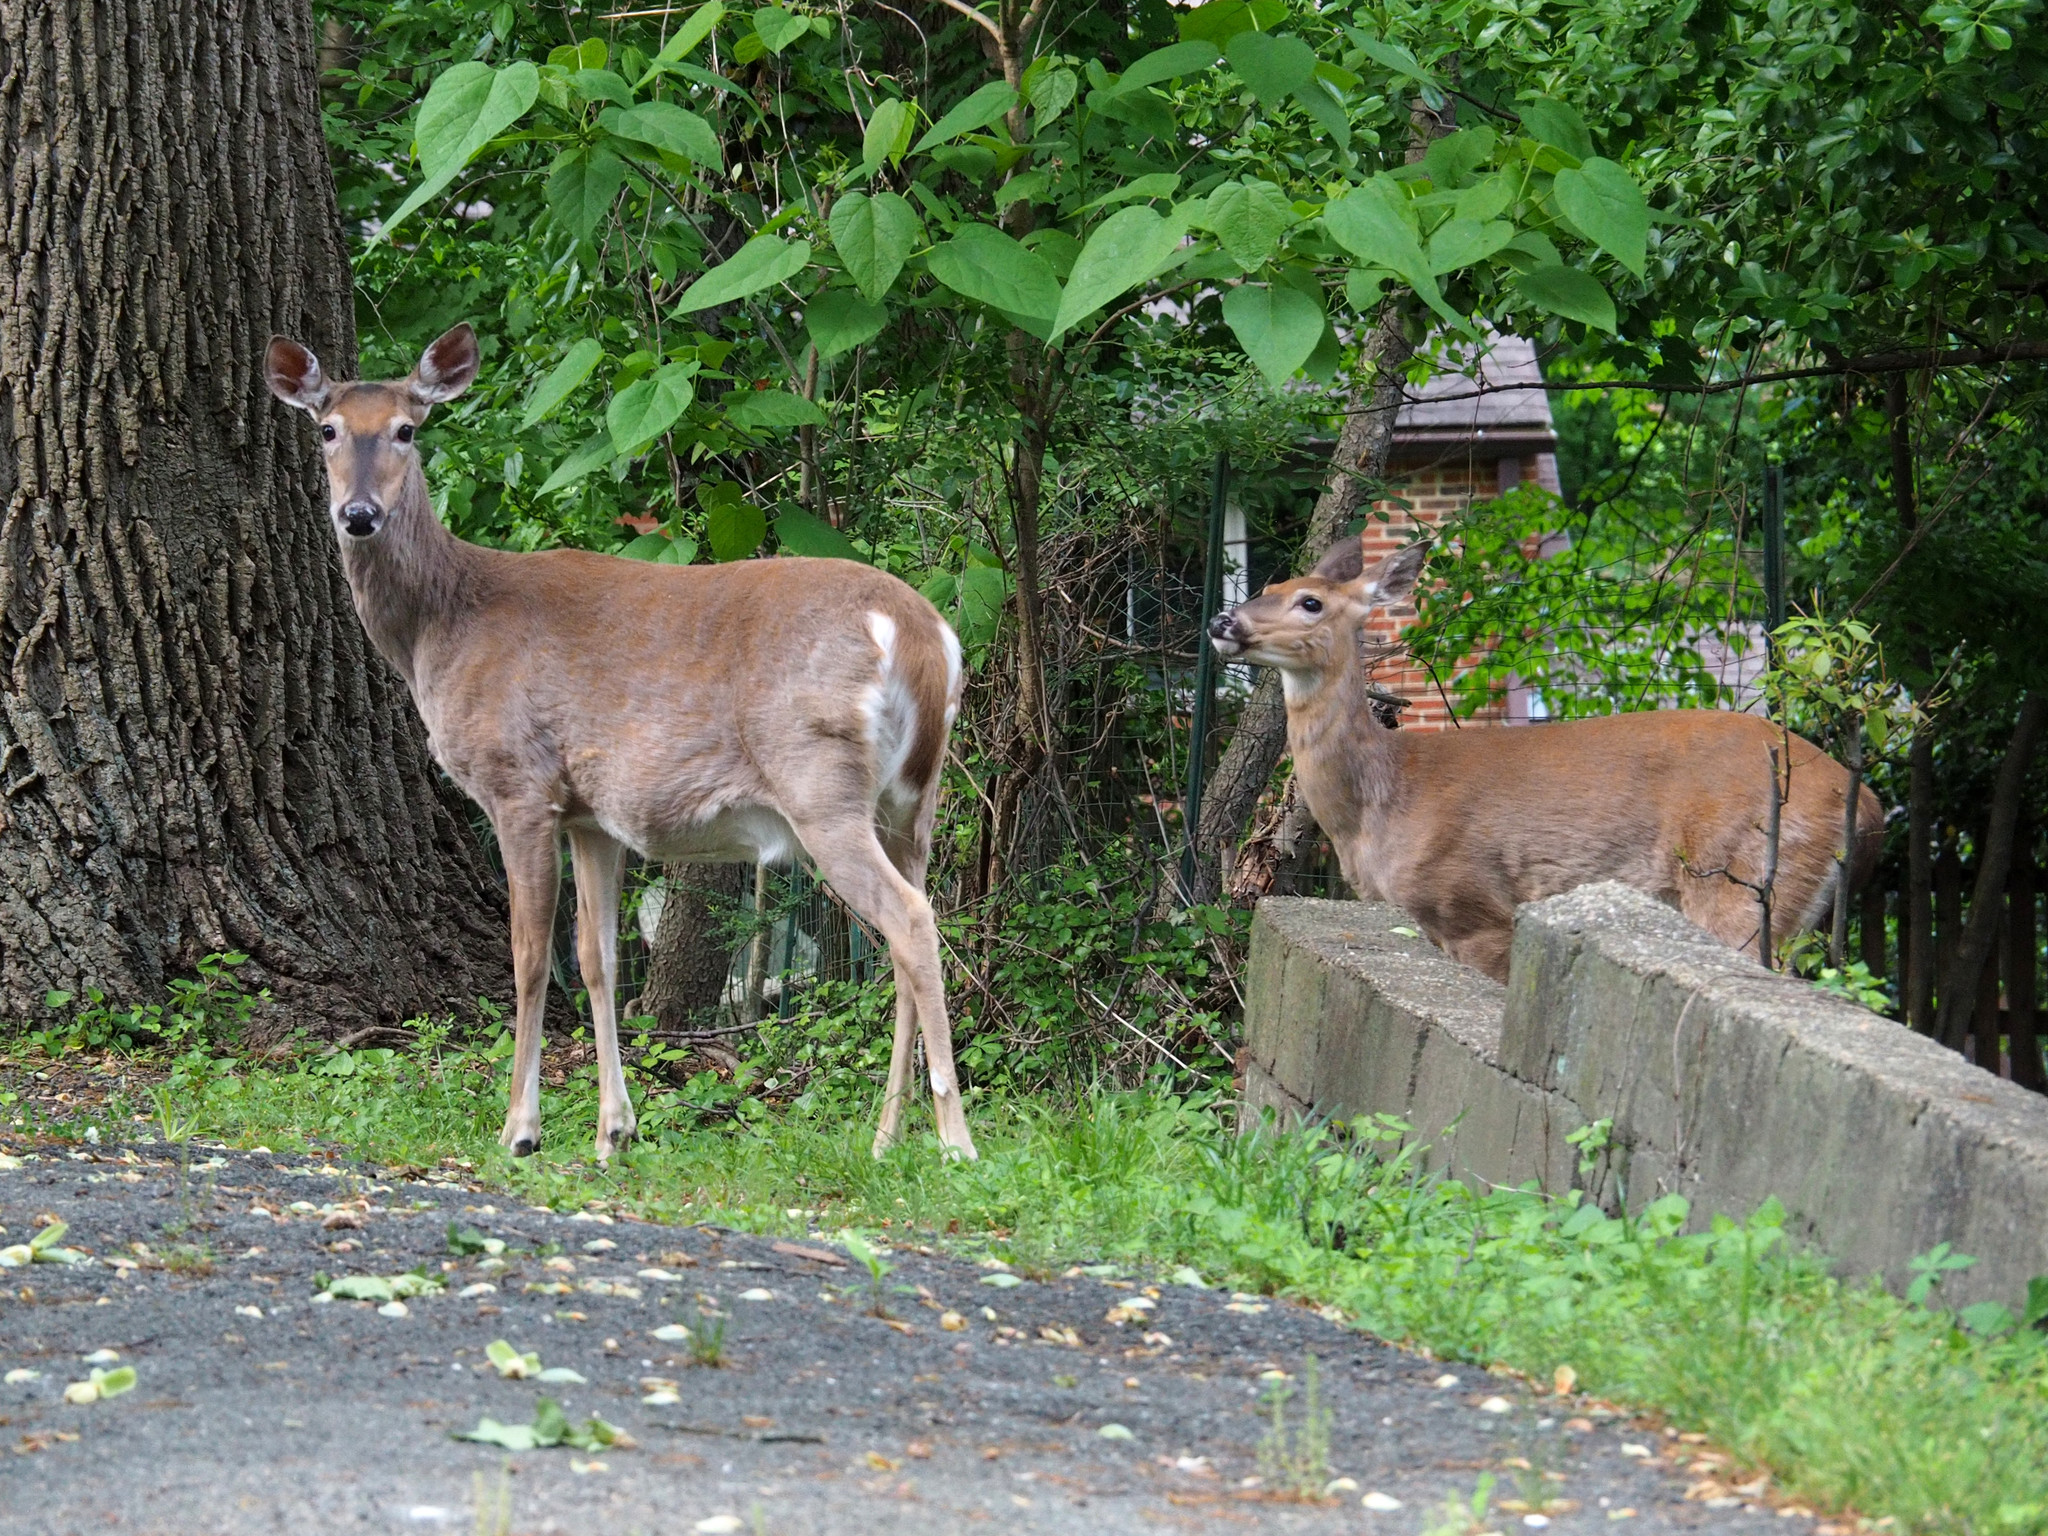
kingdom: Animalia
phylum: Chordata
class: Mammalia
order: Artiodactyla
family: Cervidae
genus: Odocoileus
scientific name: Odocoileus virginianus
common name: White-tailed deer
